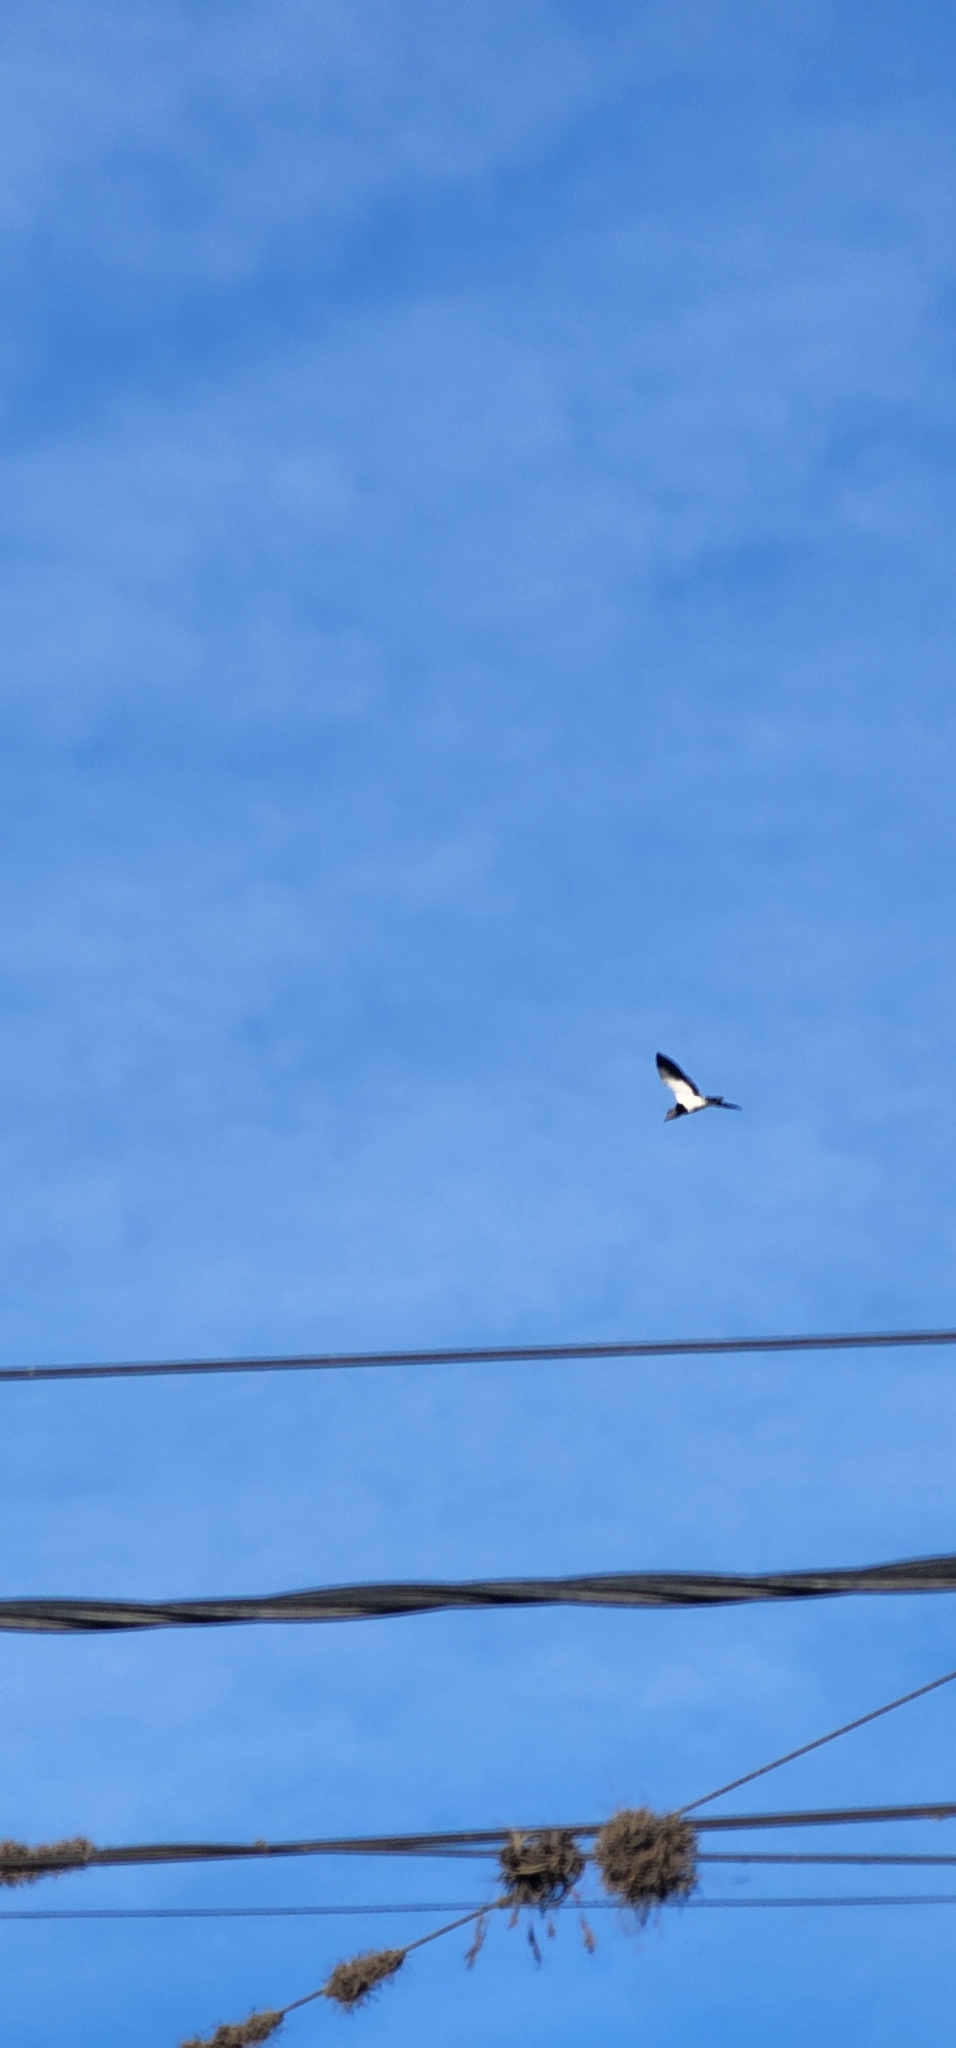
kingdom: Animalia
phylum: Chordata
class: Aves
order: Charadriiformes
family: Charadriidae
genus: Vanellus
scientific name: Vanellus chilensis
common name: Southern lapwing
